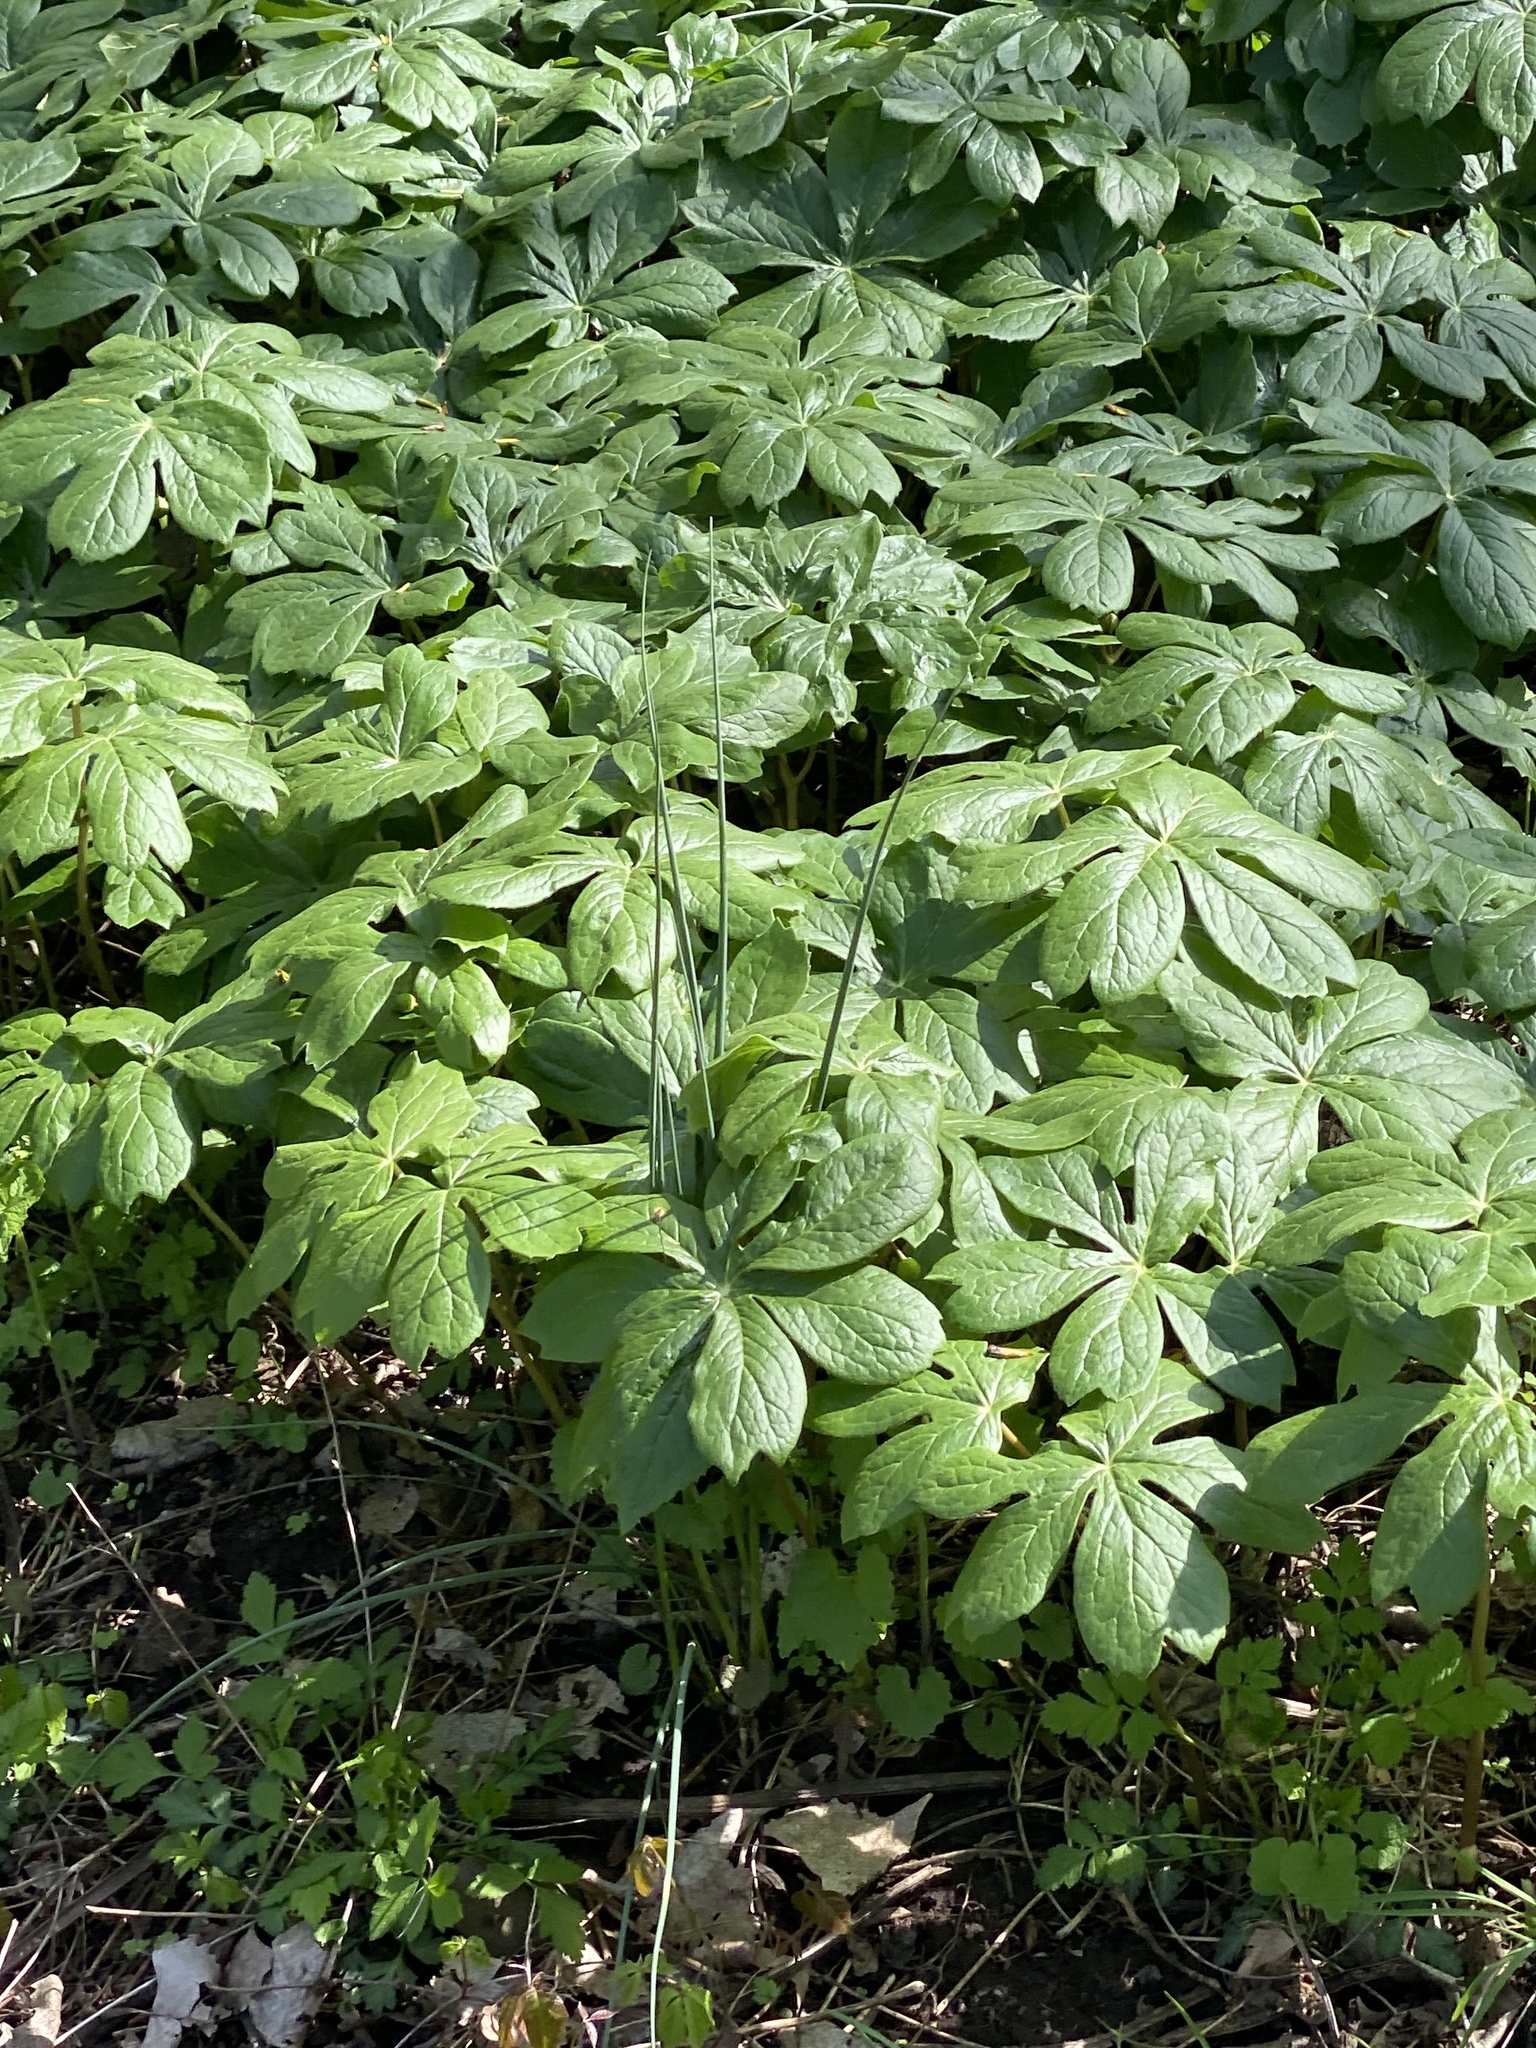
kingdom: Plantae
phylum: Tracheophyta
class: Magnoliopsida
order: Ranunculales
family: Berberidaceae
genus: Podophyllum
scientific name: Podophyllum peltatum
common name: Wild mandrake
